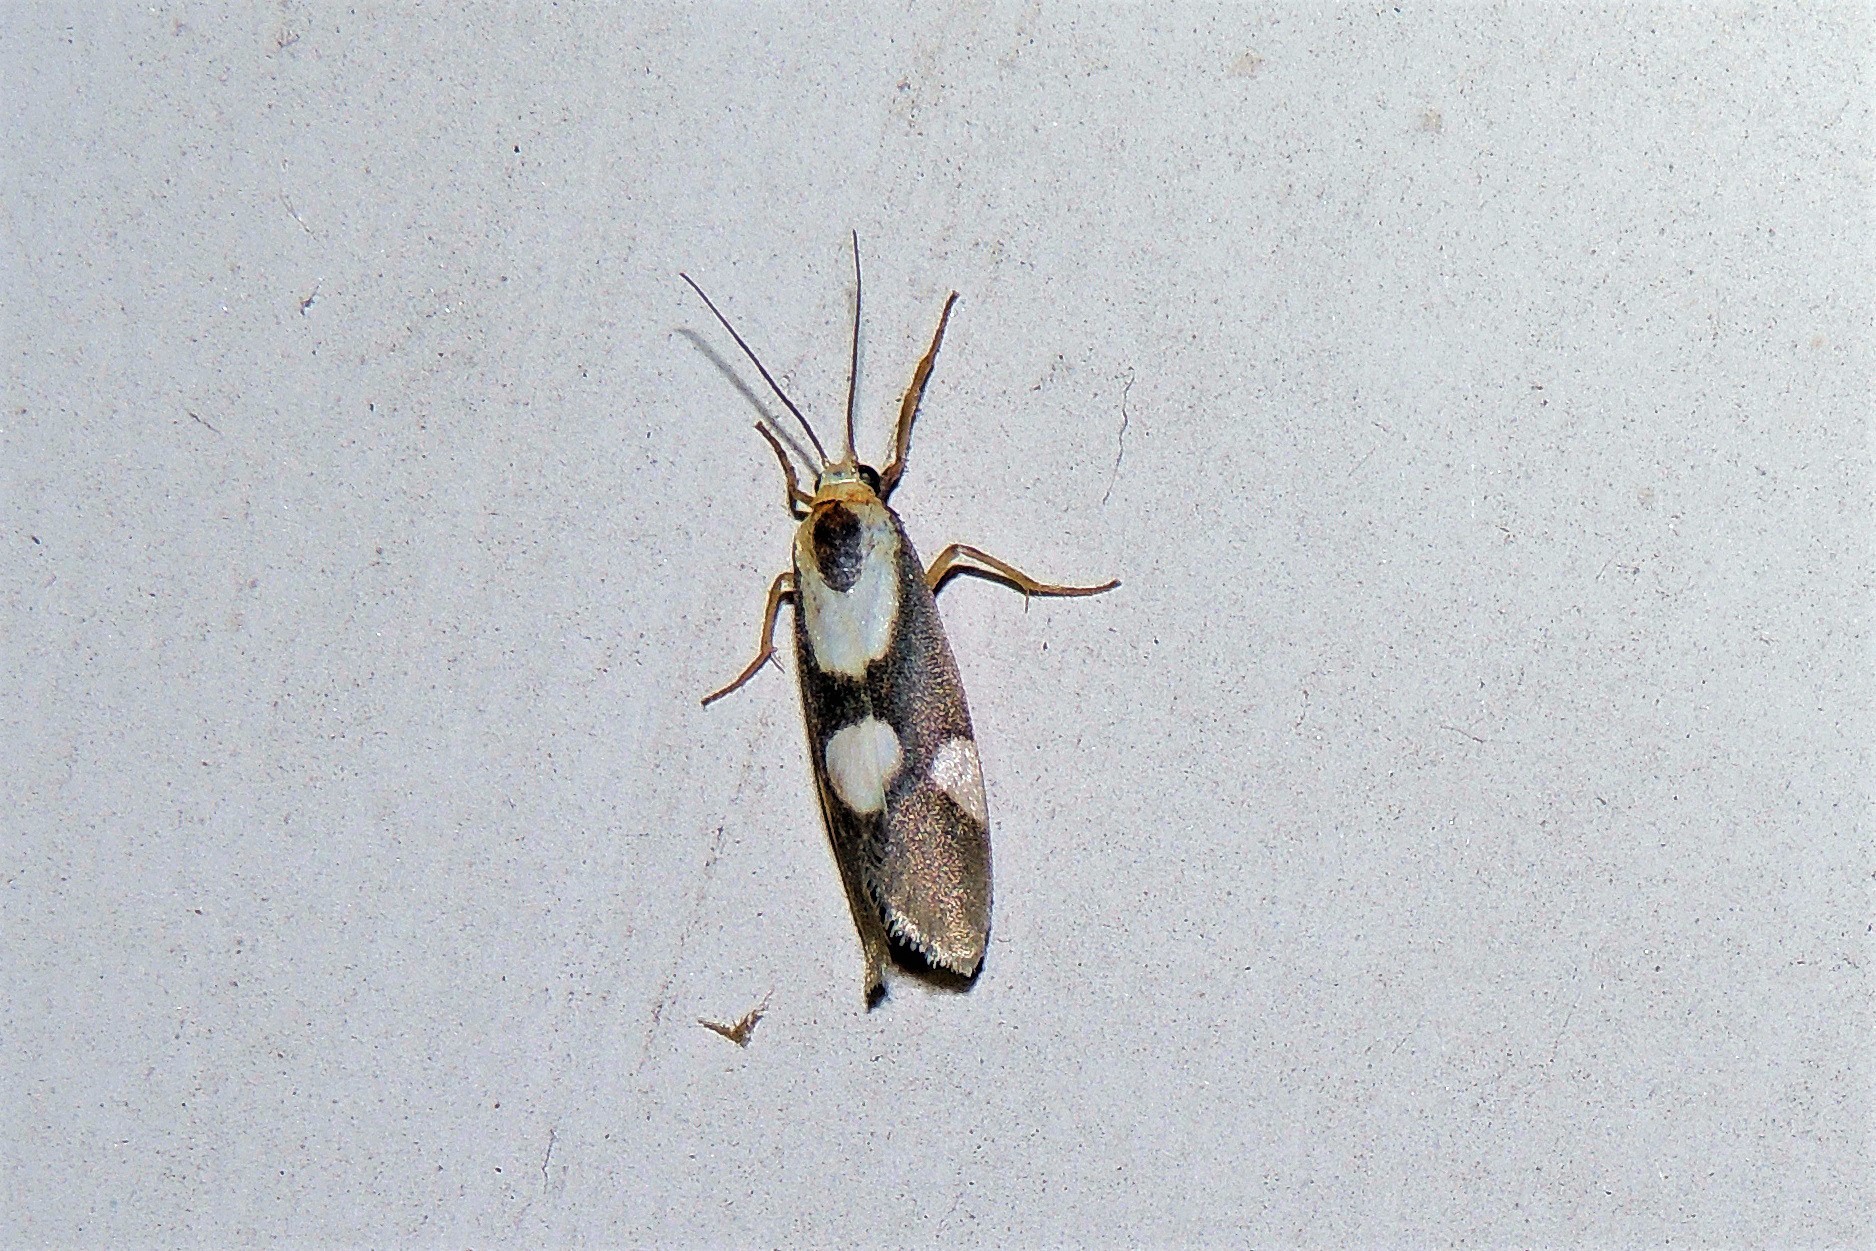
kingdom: Animalia
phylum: Arthropoda
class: Insecta
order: Lepidoptera
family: Erebidae
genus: Cisthene
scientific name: Cisthene persimilis
